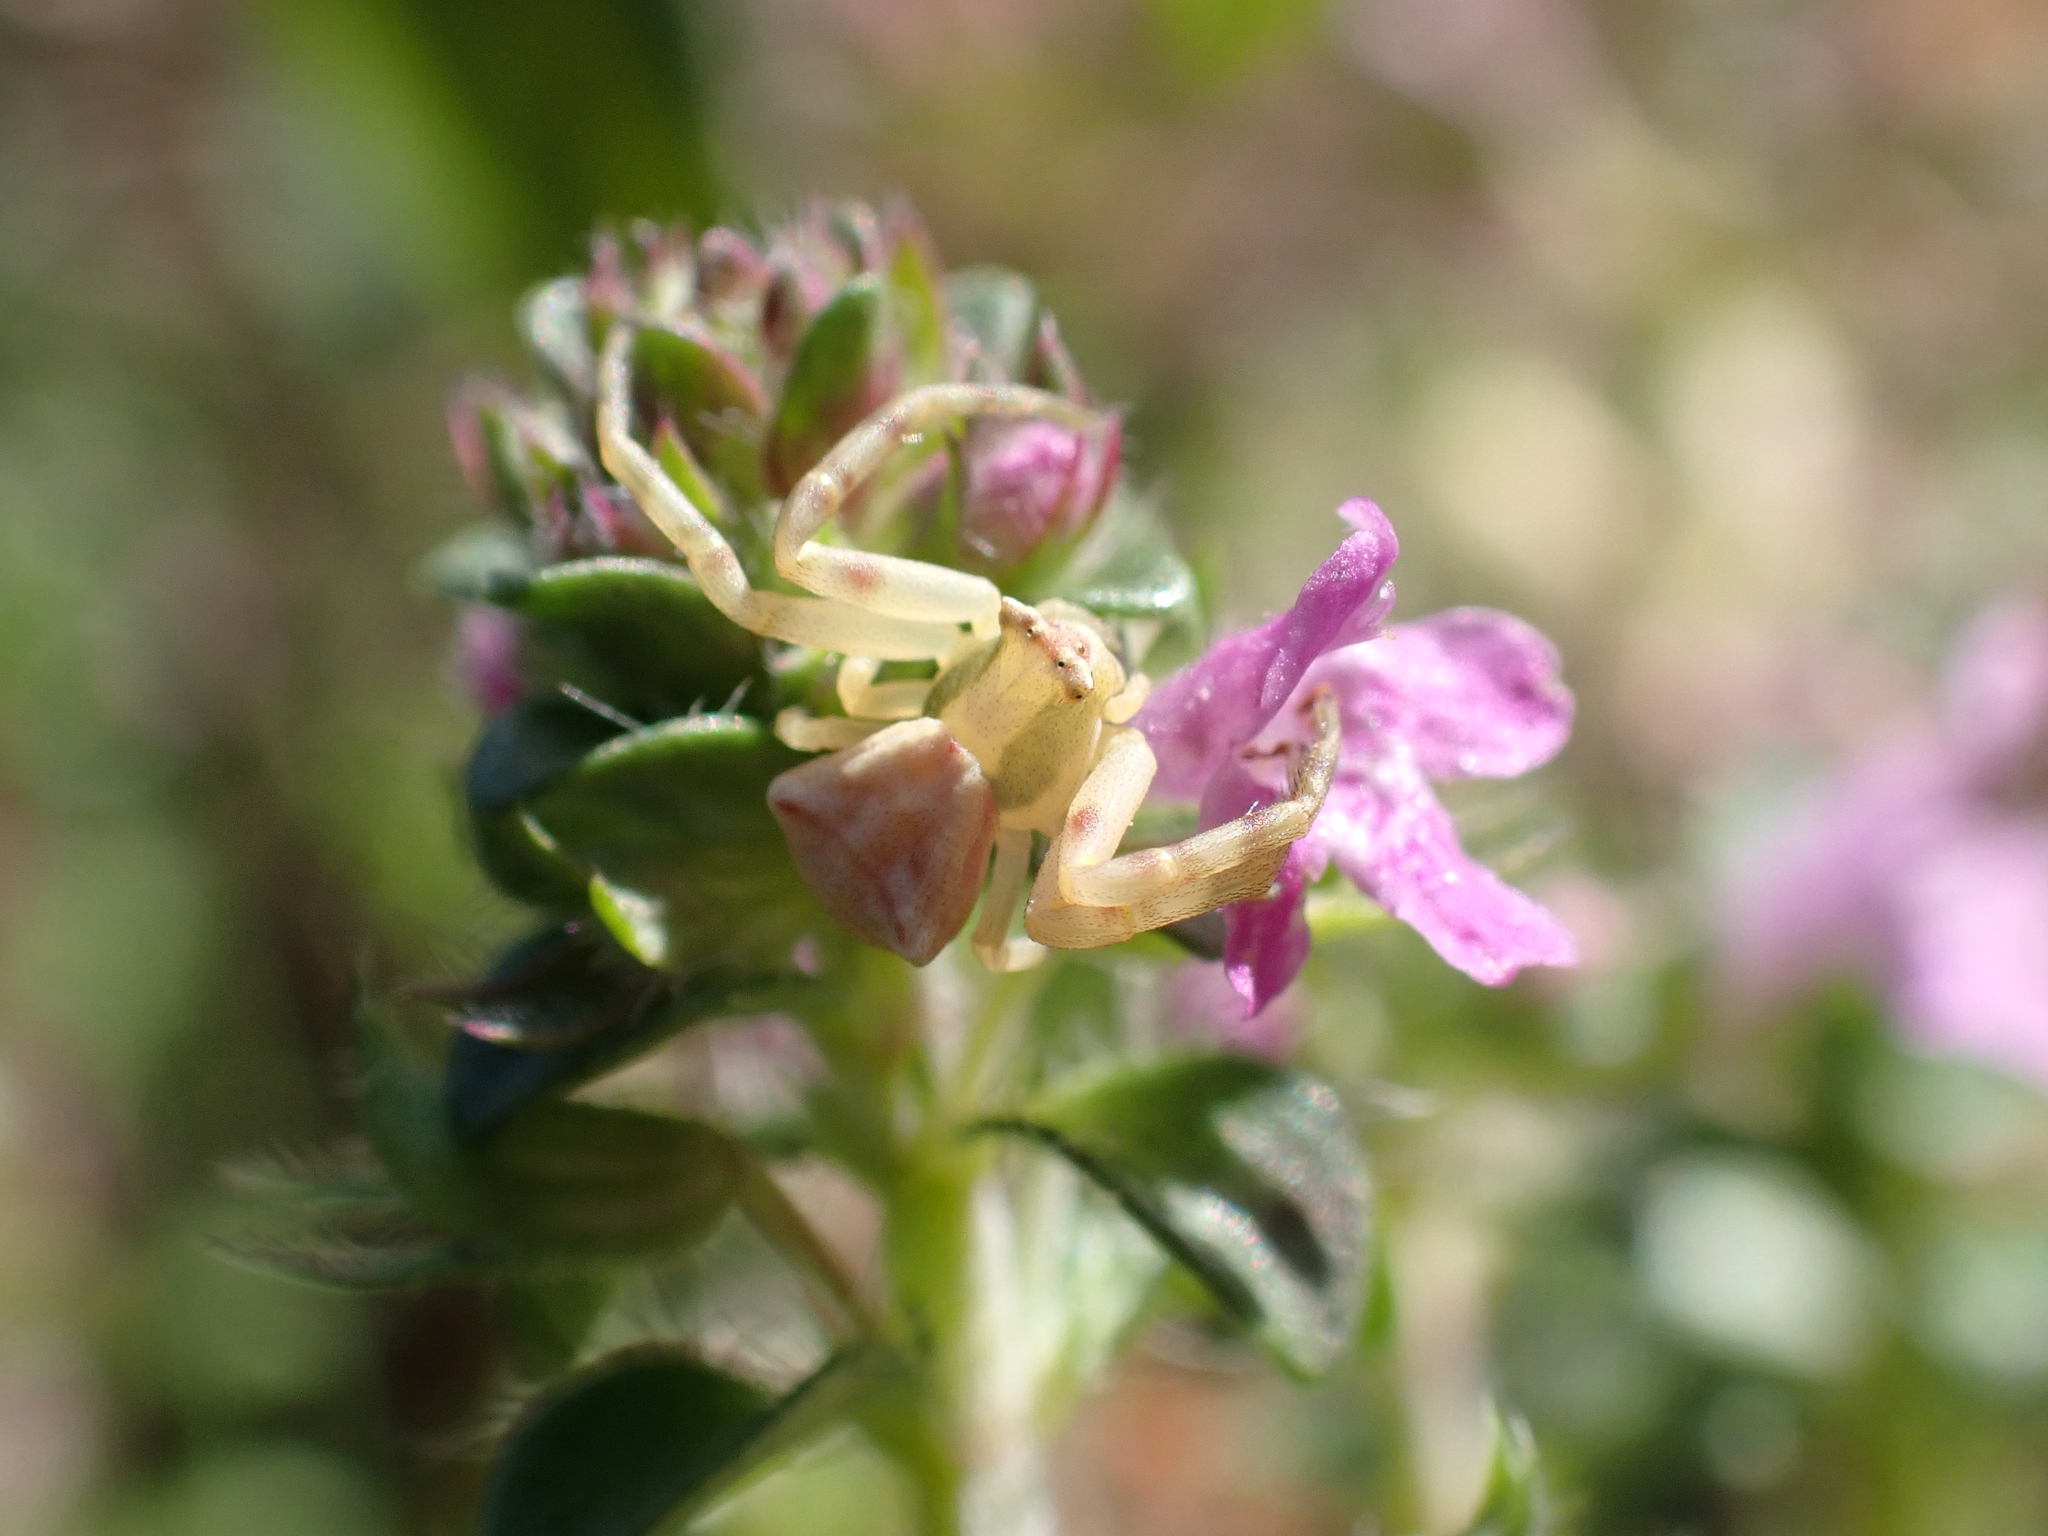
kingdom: Animalia
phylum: Arthropoda
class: Arachnida
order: Araneae
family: Thomisidae
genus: Thomisus
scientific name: Thomisus onustus
